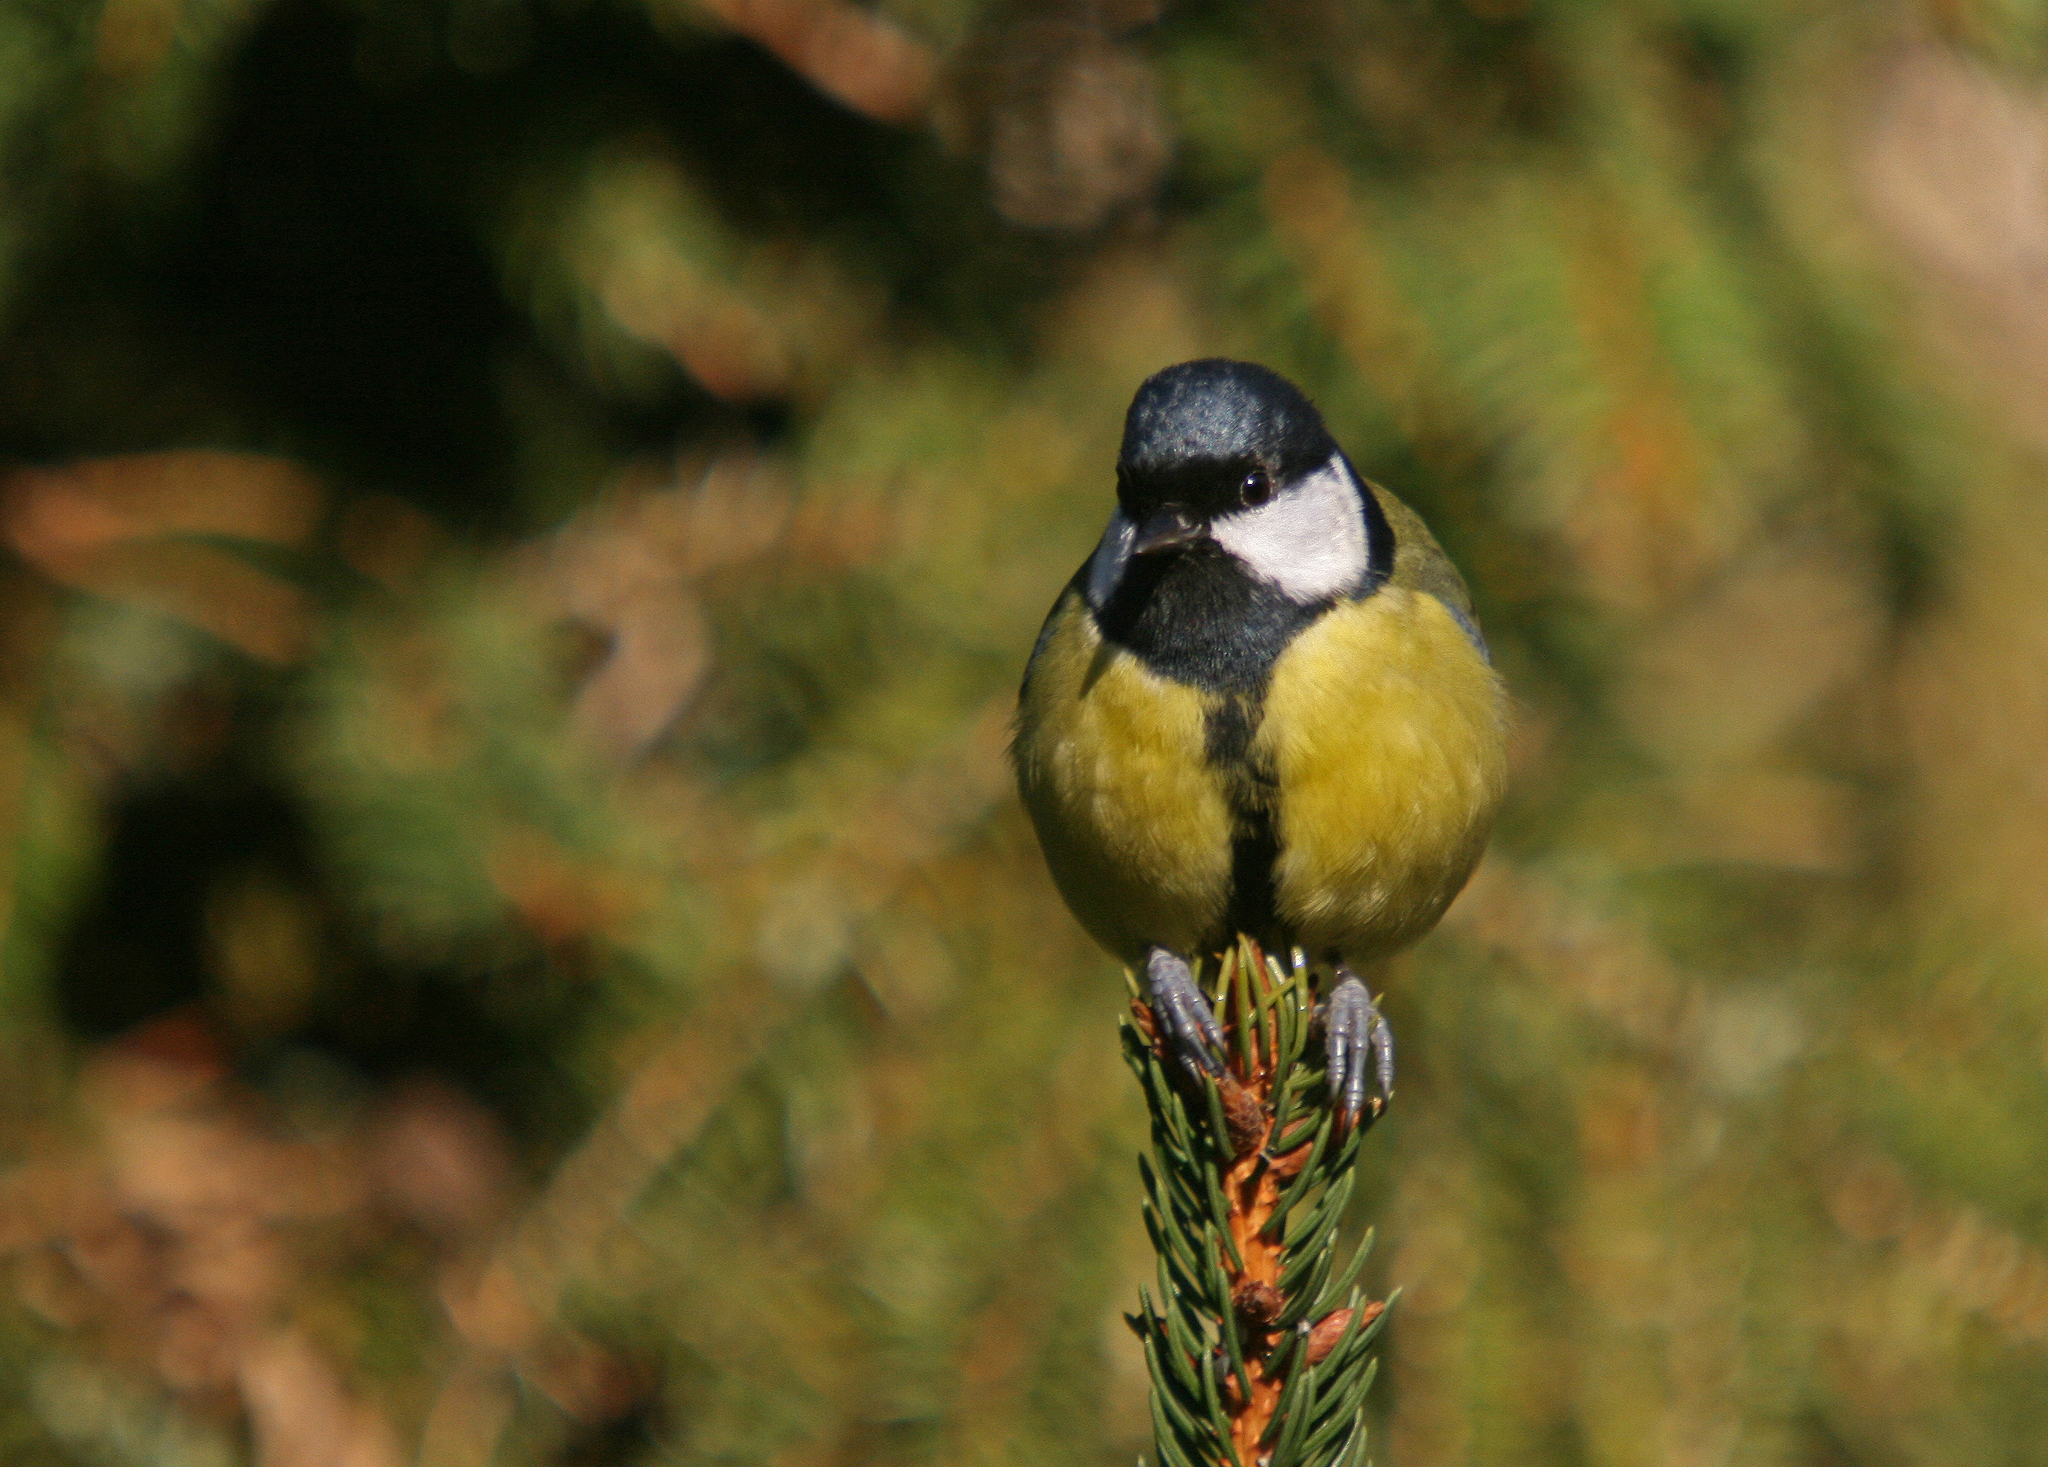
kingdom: Animalia
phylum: Chordata
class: Aves
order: Passeriformes
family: Paridae
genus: Parus
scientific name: Parus major
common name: Great tit
